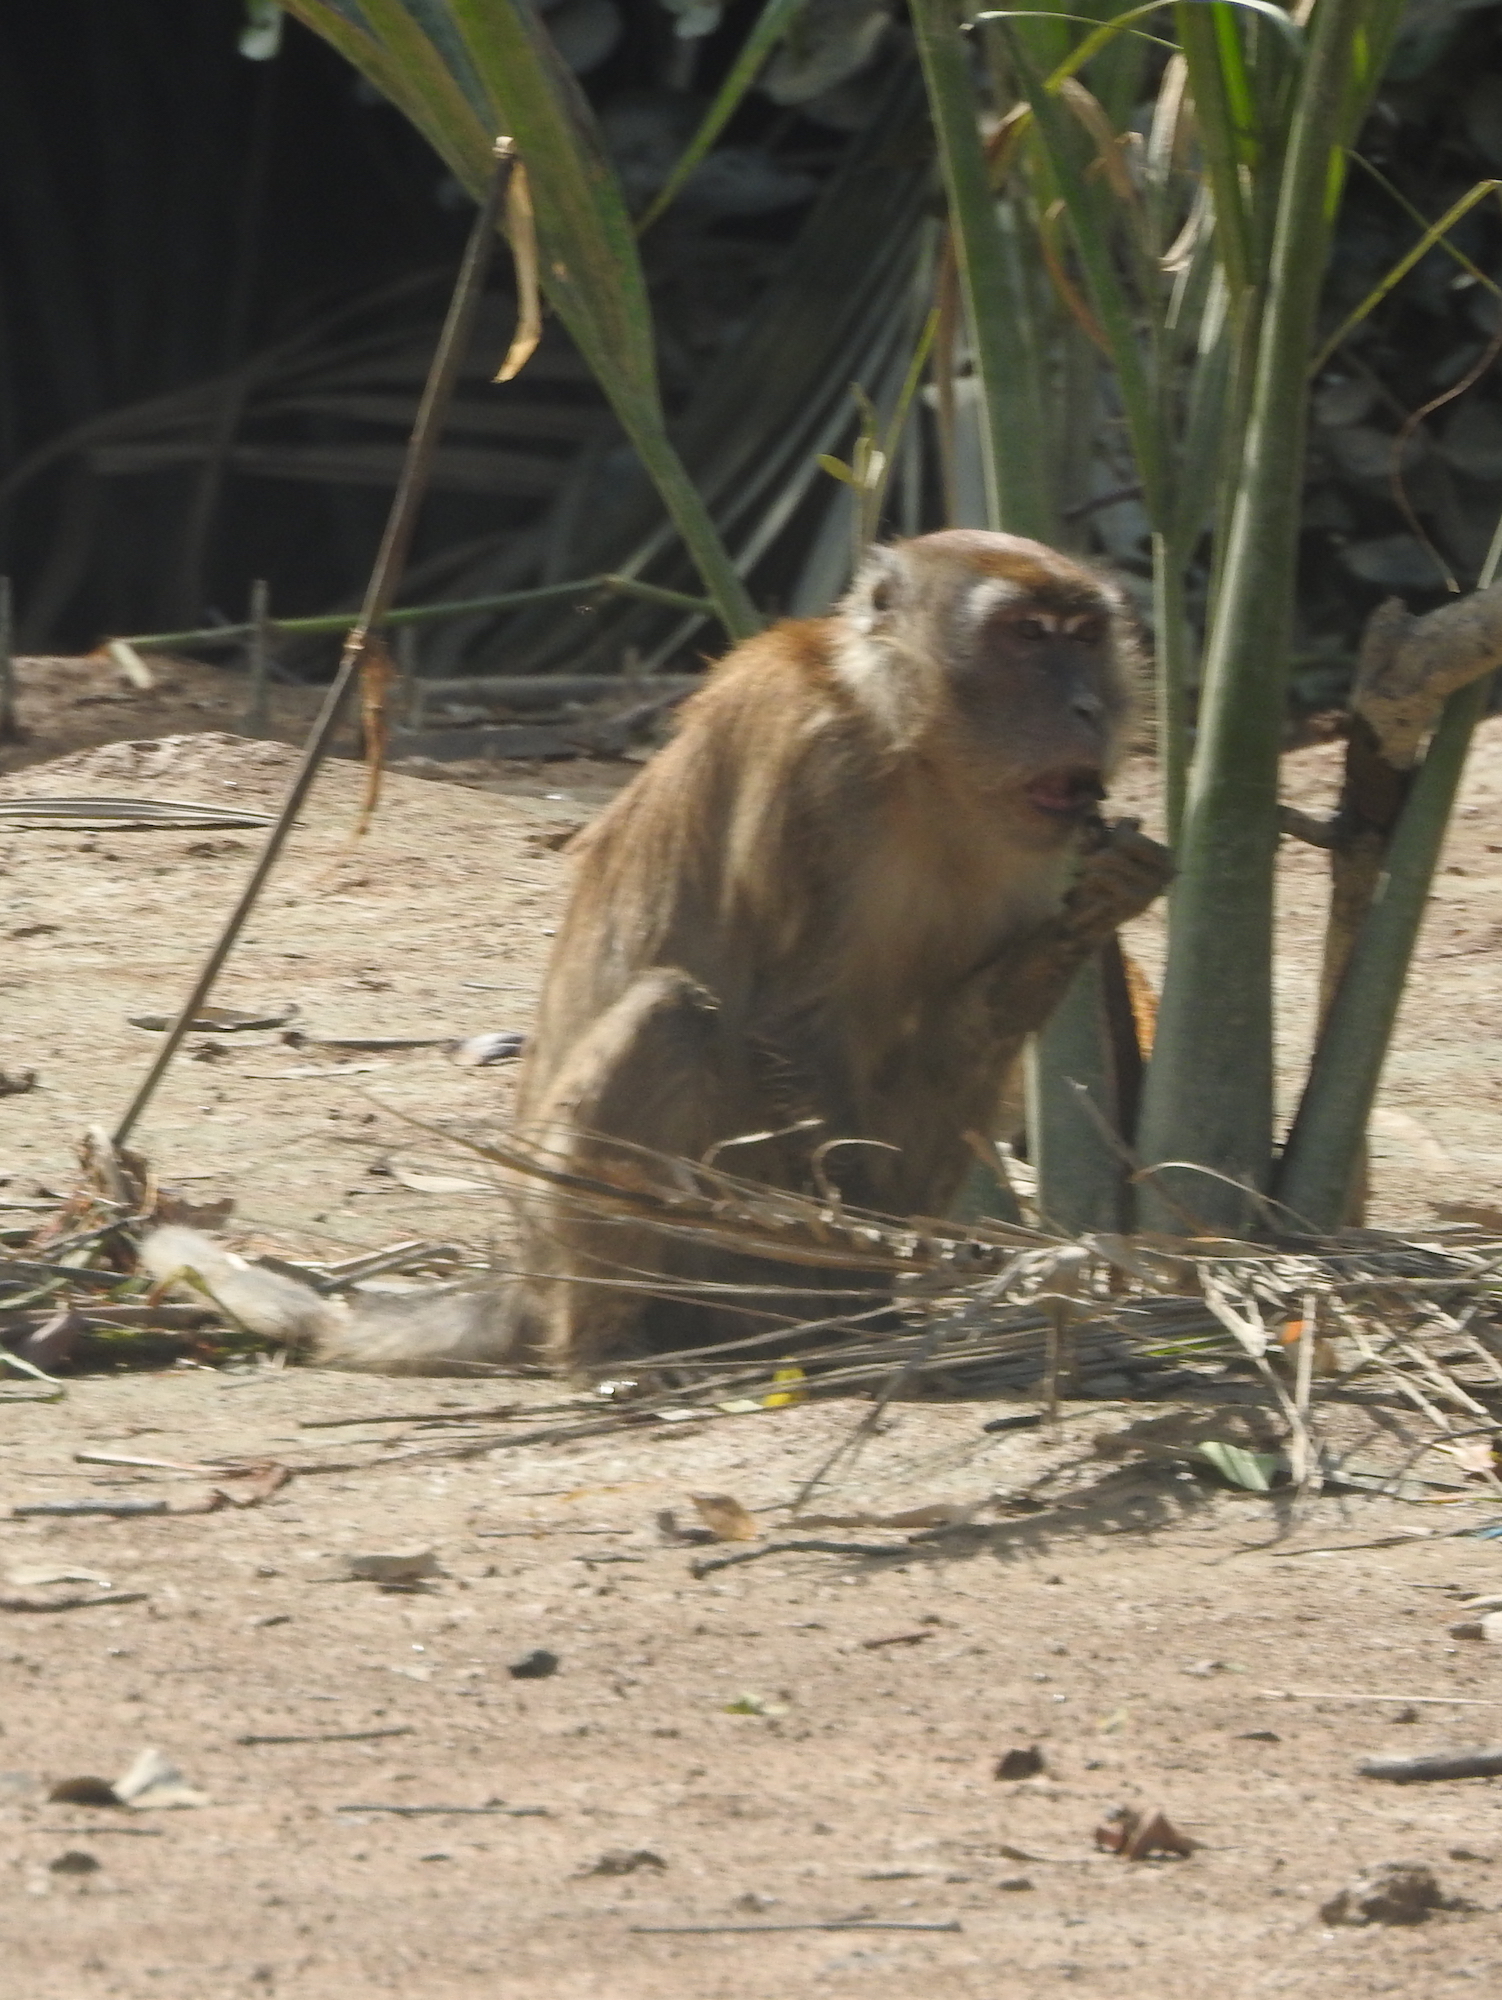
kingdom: Animalia
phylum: Chordata
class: Mammalia
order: Primates
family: Cercopithecidae
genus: Macaca
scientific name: Macaca fascicularis
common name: Crab-eating macaque
